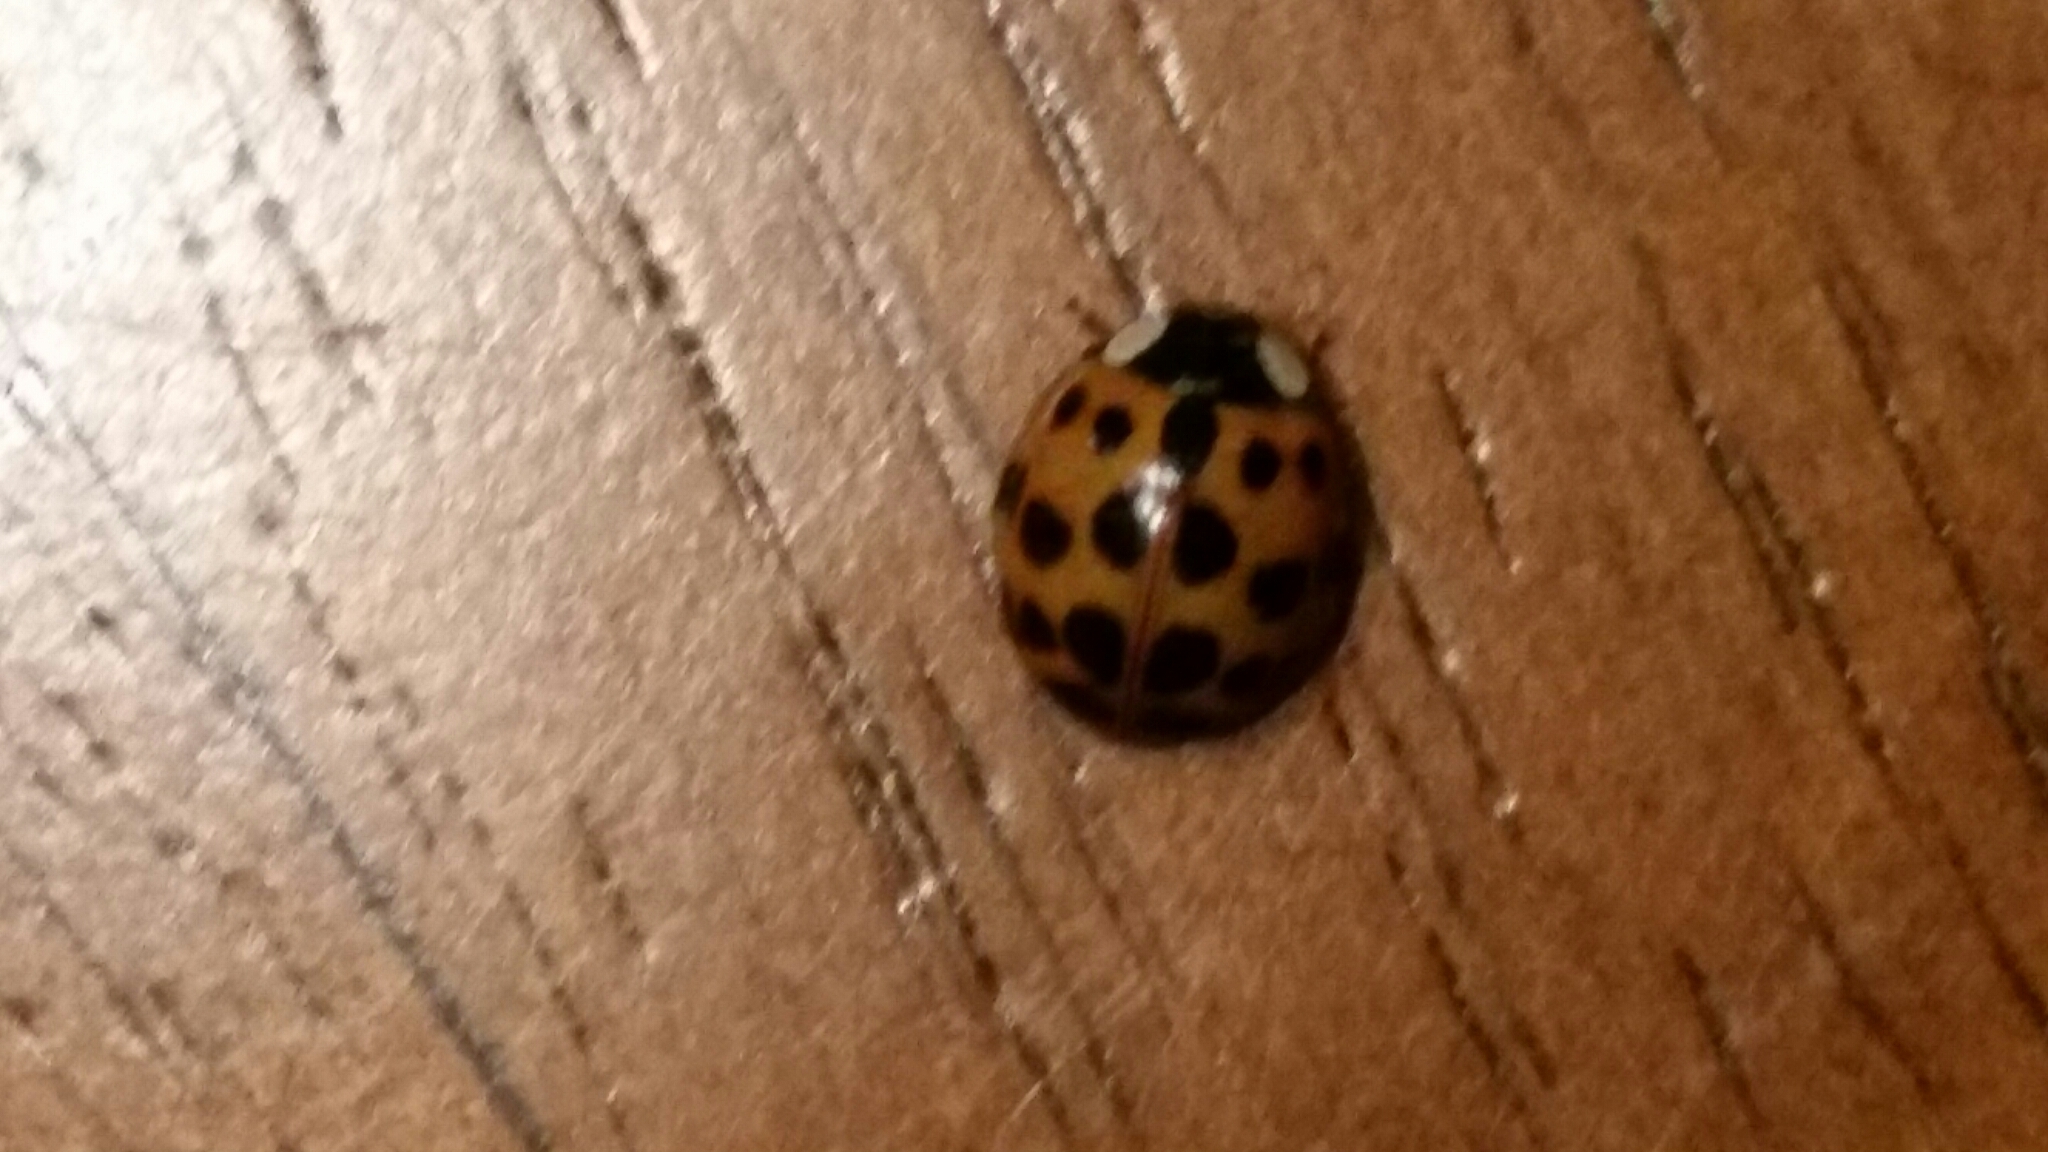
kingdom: Animalia
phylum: Arthropoda
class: Insecta
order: Coleoptera
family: Coccinellidae
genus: Harmonia
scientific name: Harmonia axyridis
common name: Harlequin ladybird
